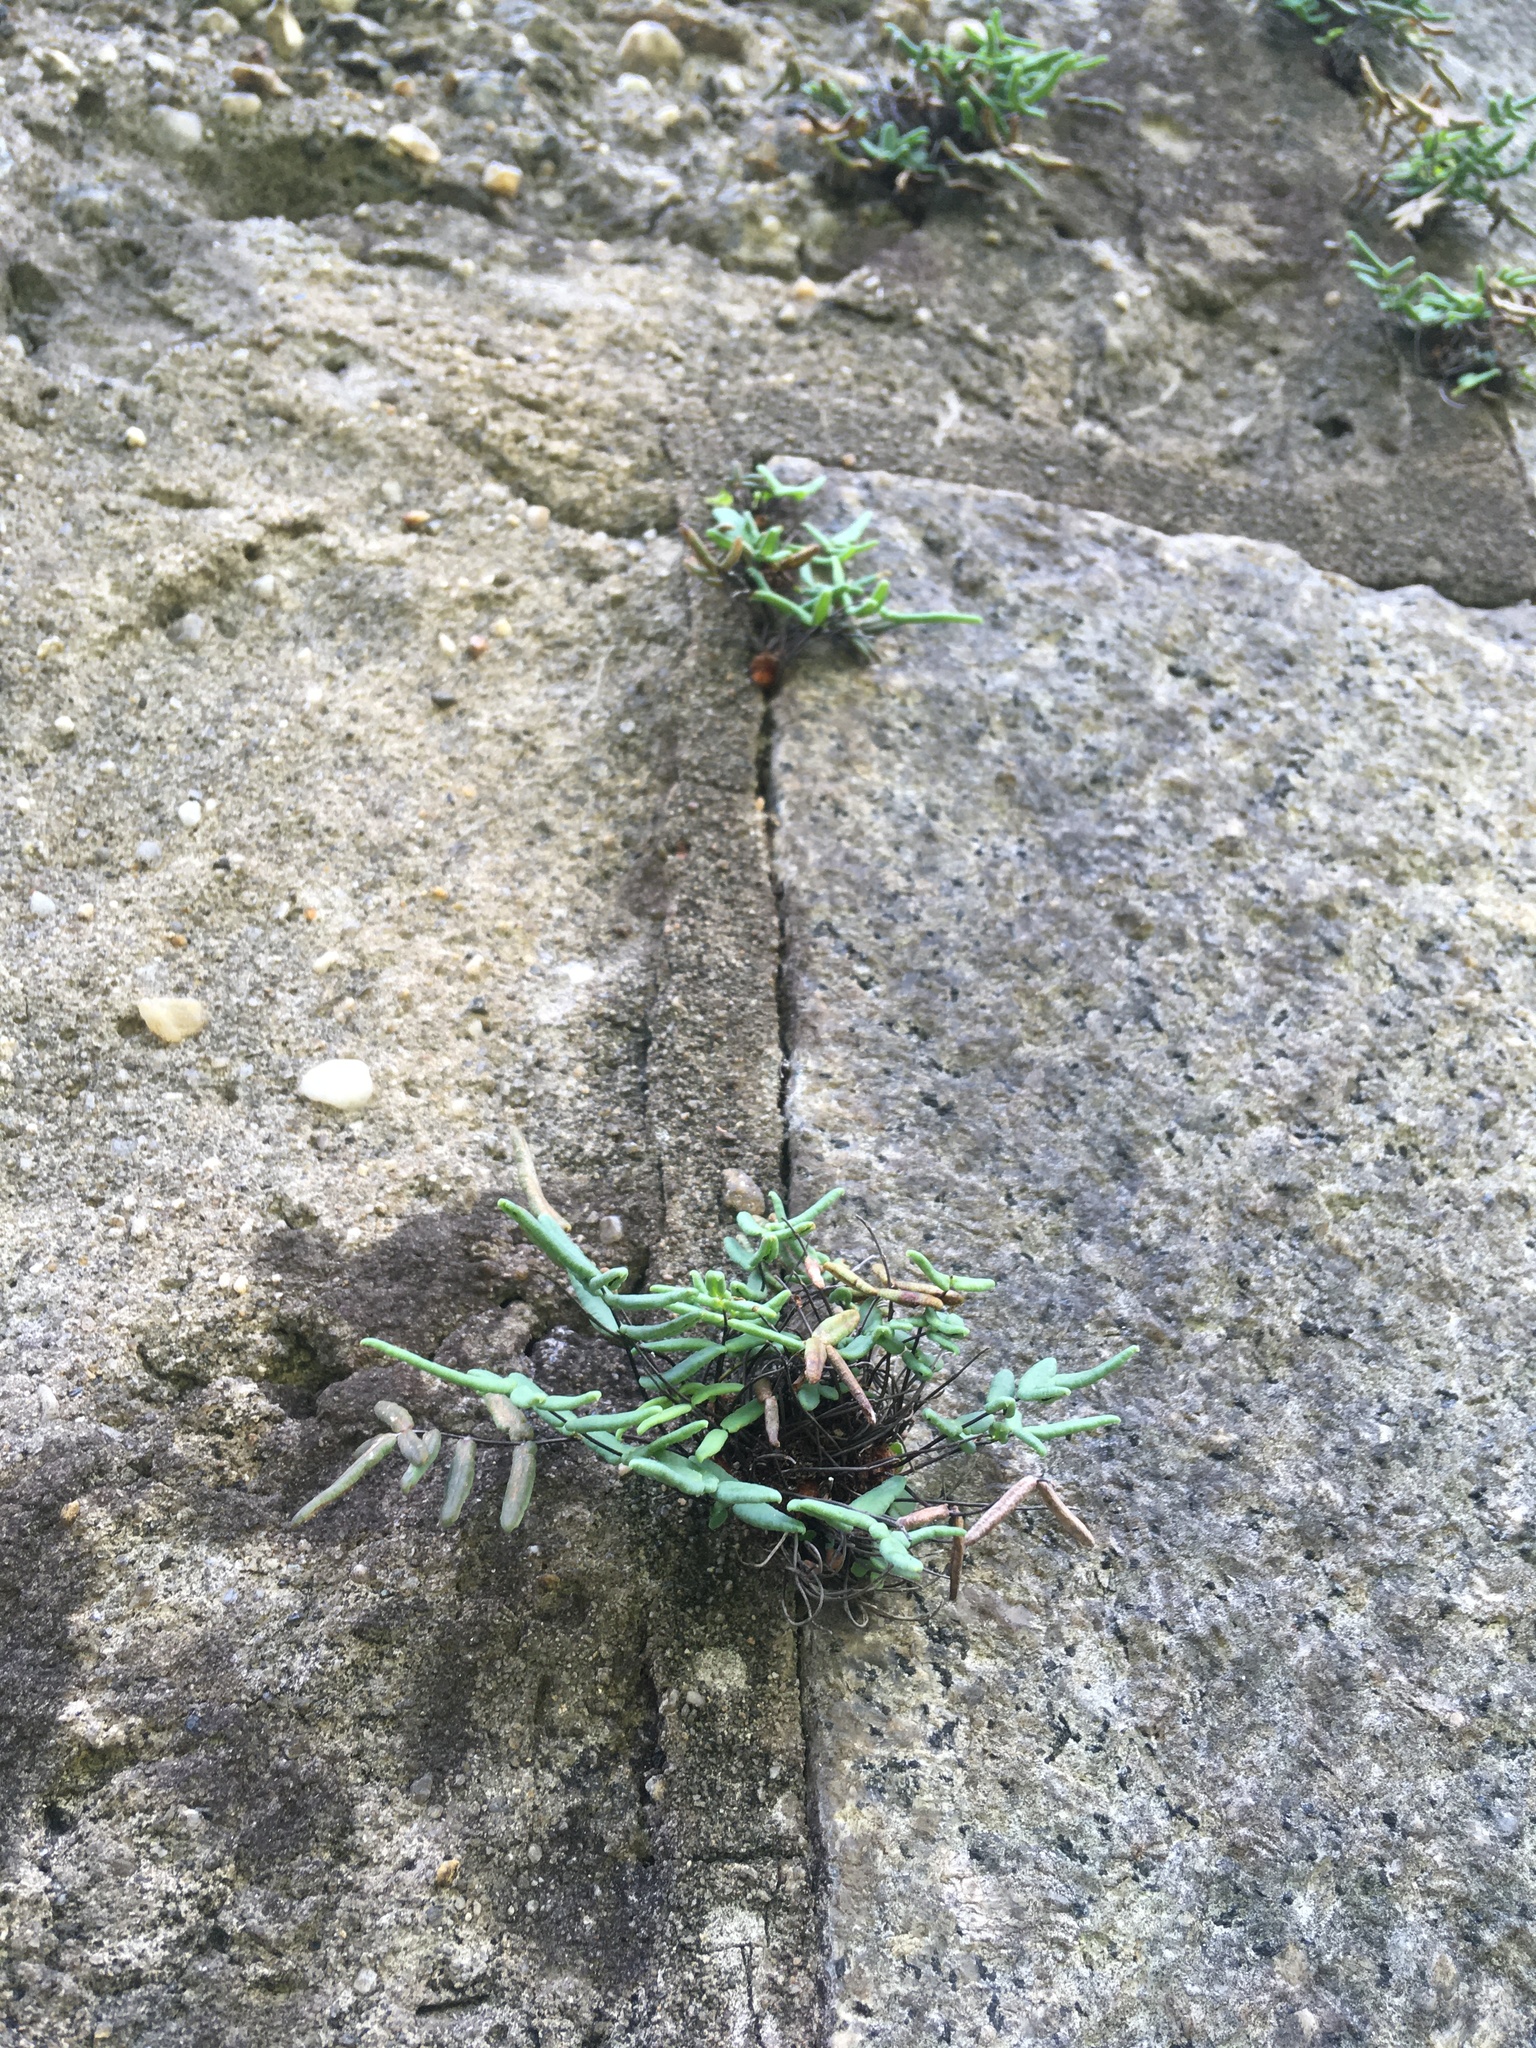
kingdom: Plantae
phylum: Tracheophyta
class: Polypodiopsida
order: Polypodiales
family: Pteridaceae
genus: Pellaea
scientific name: Pellaea glabella
